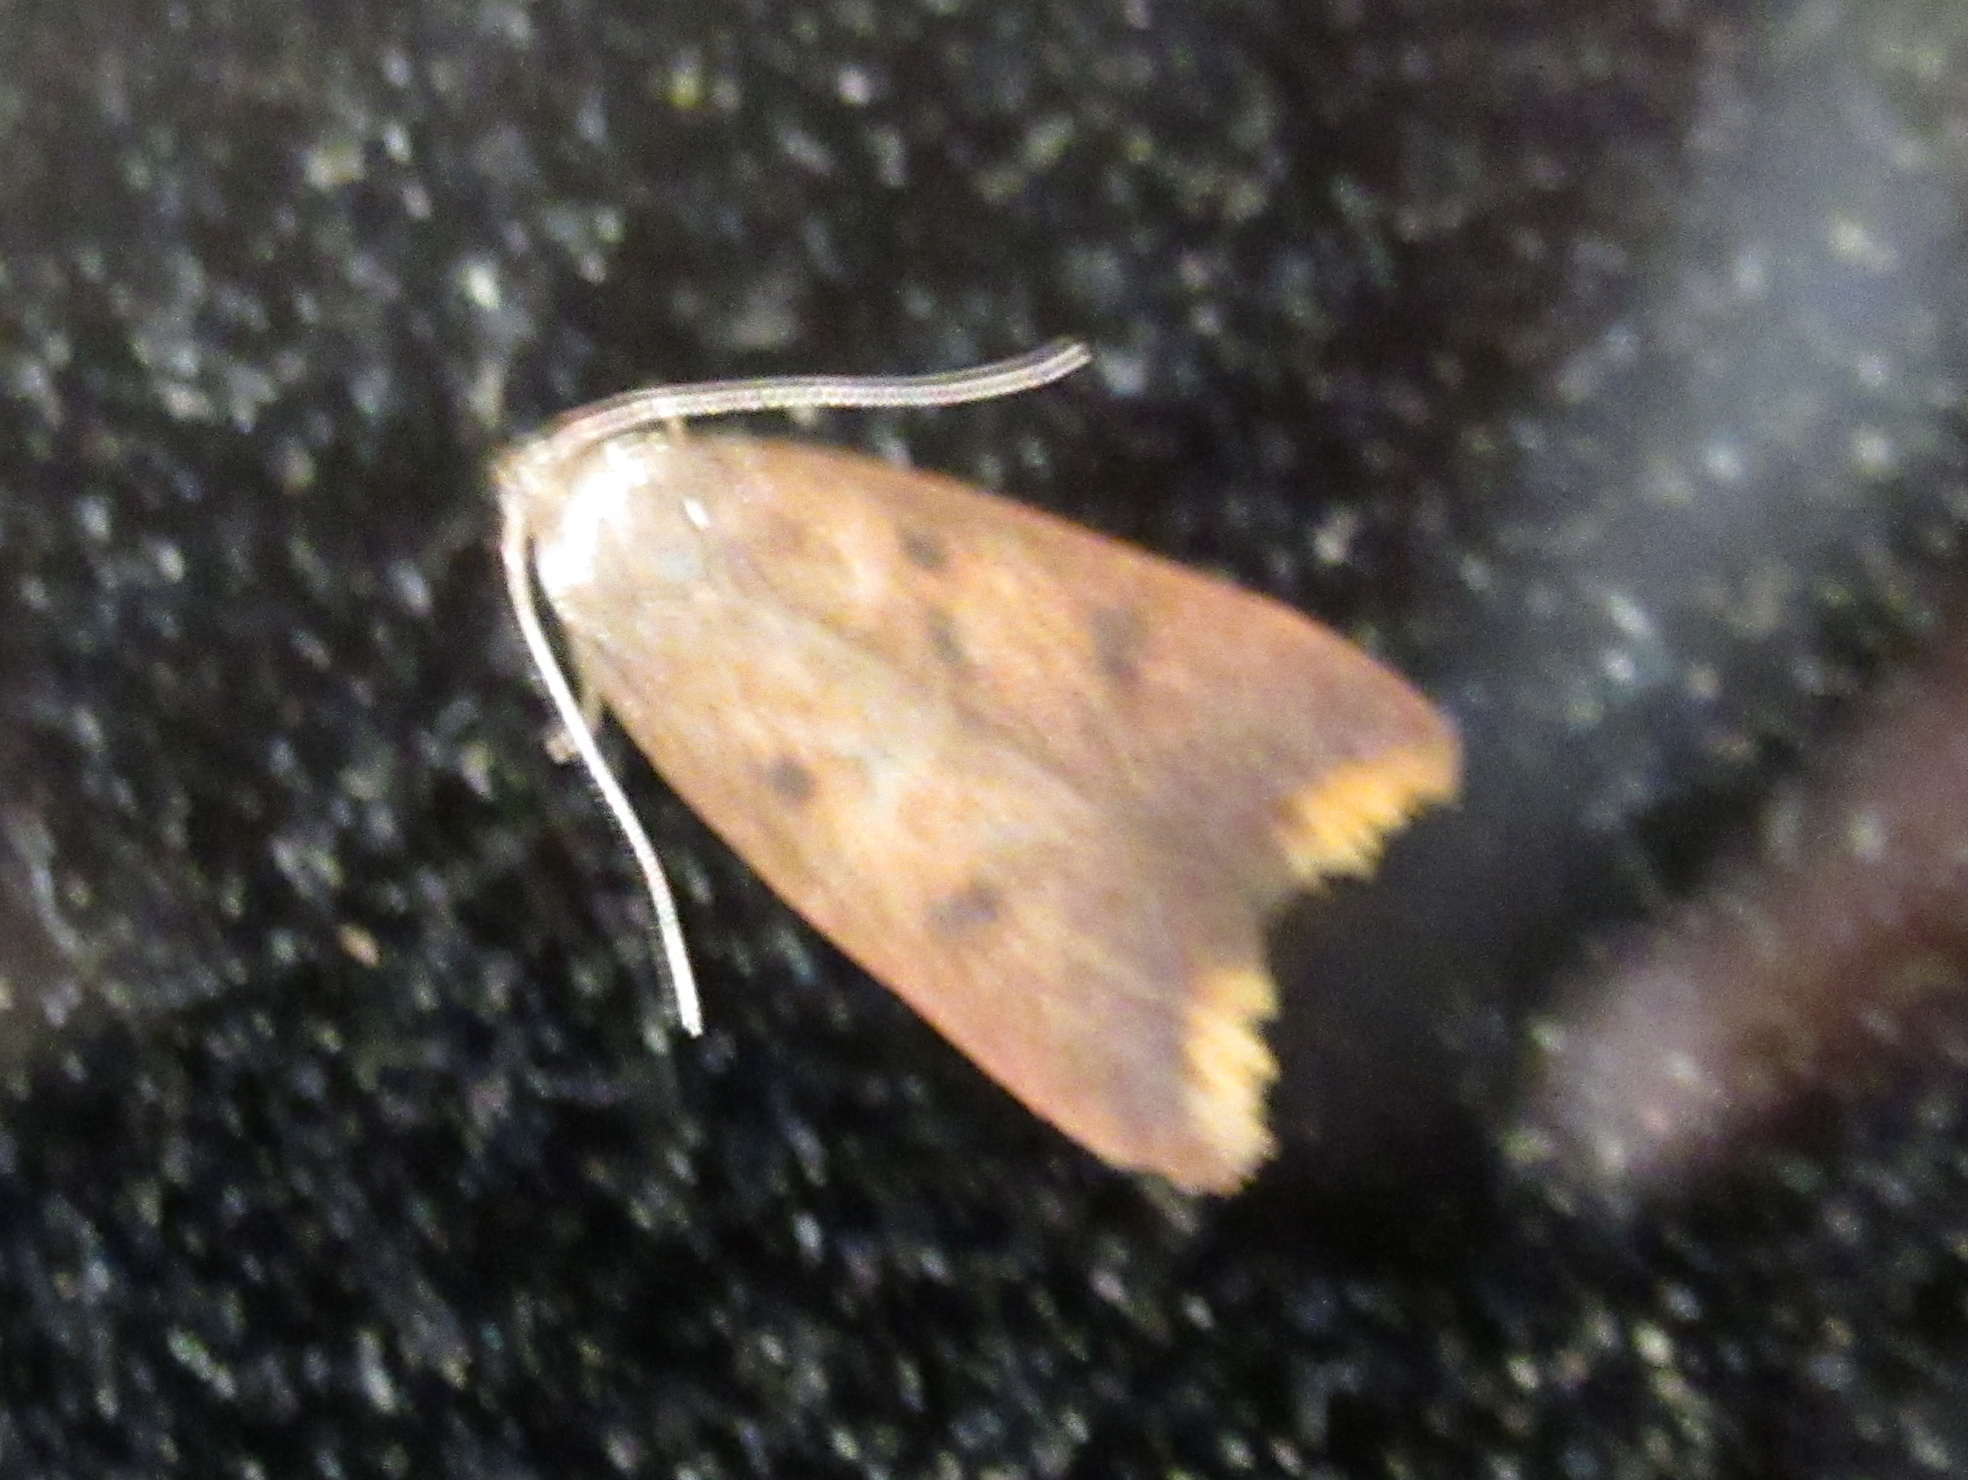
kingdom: Animalia
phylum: Arthropoda
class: Insecta
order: Lepidoptera
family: Oecophoridae
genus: Tachystola
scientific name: Tachystola acroxantha
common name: Ruddy streak
